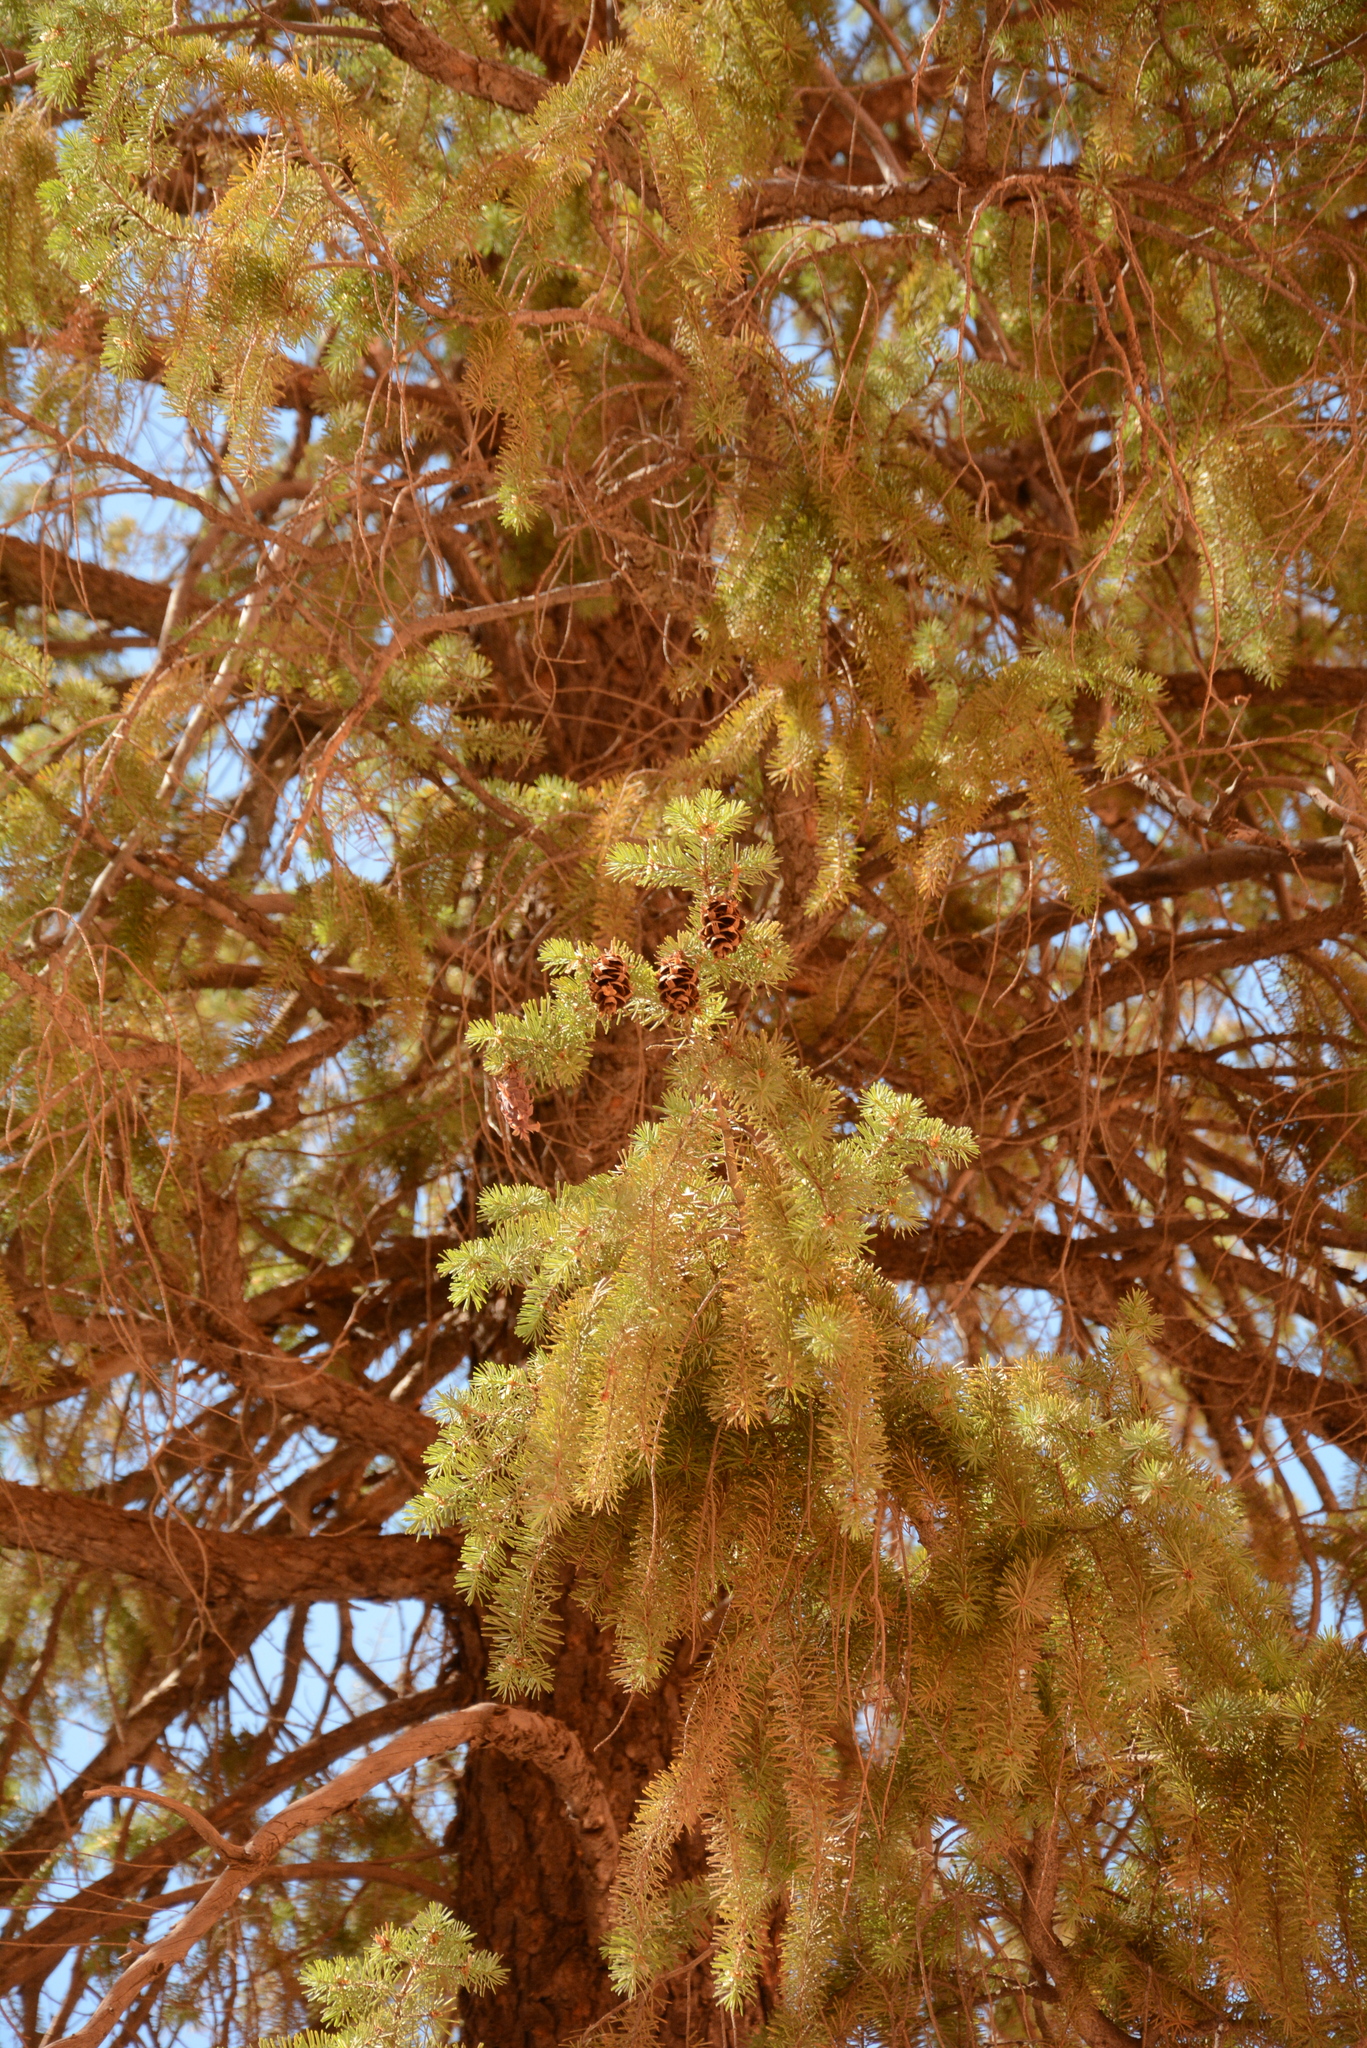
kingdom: Plantae
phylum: Tracheophyta
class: Pinopsida
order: Pinales
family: Pinaceae
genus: Pseudotsuga
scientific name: Pseudotsuga menziesii
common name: Douglas fir
